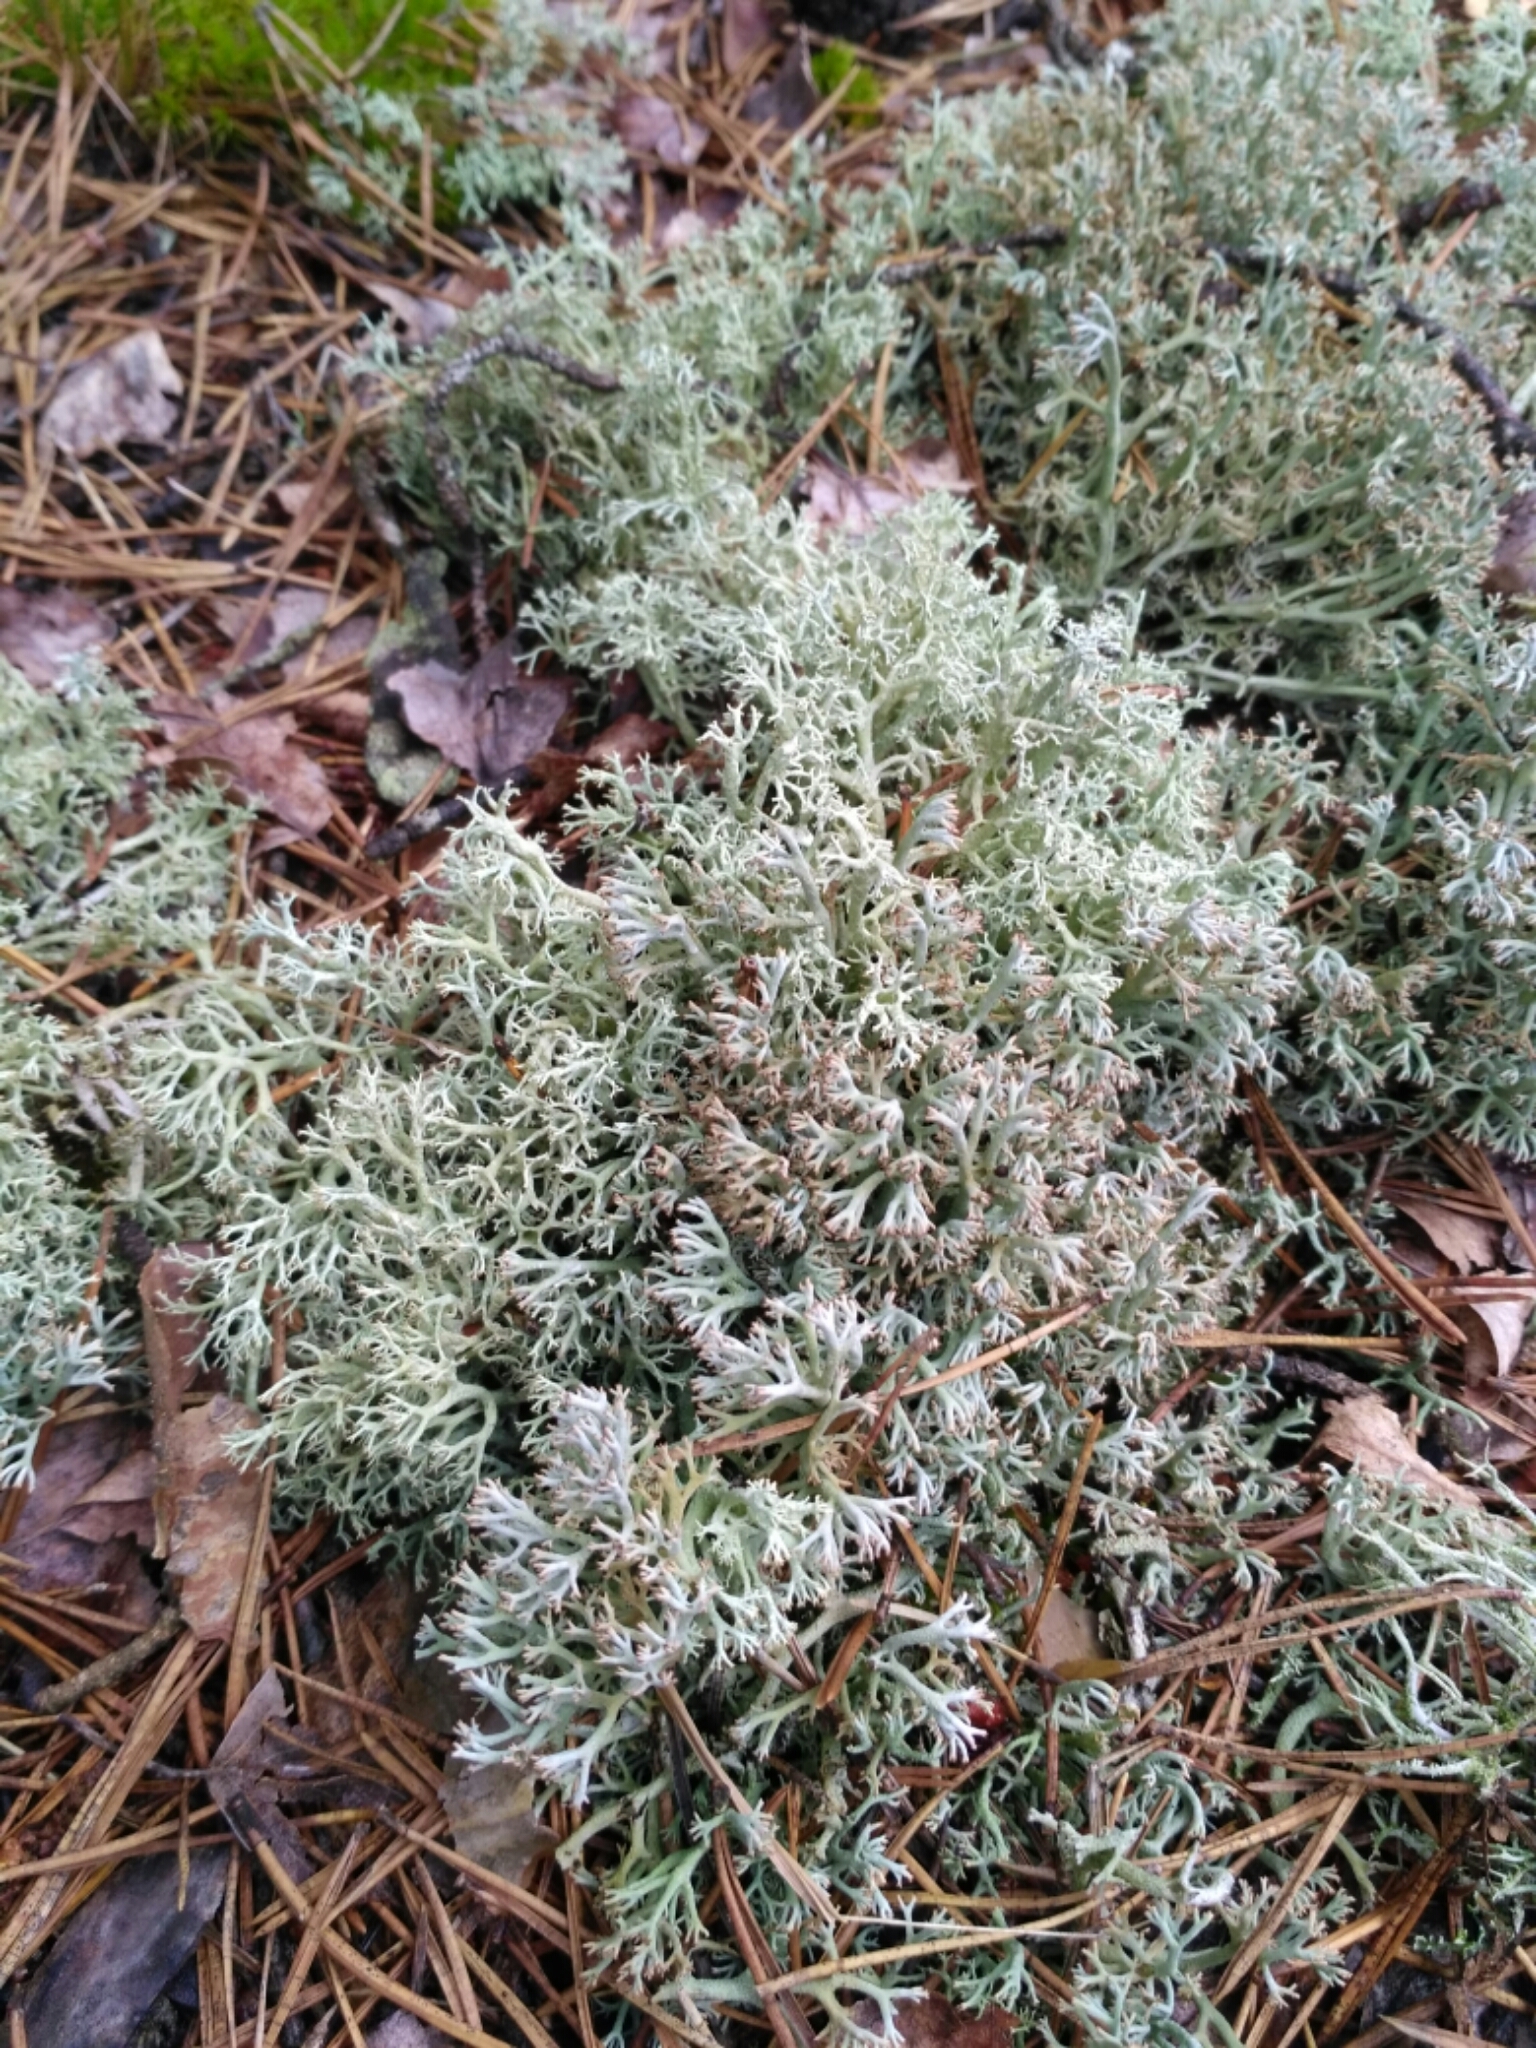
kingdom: Fungi
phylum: Ascomycota
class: Lecanoromycetes
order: Lecanorales
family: Cladoniaceae
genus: Cladonia
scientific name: Cladonia arbuscula
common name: Reindeer lichen
